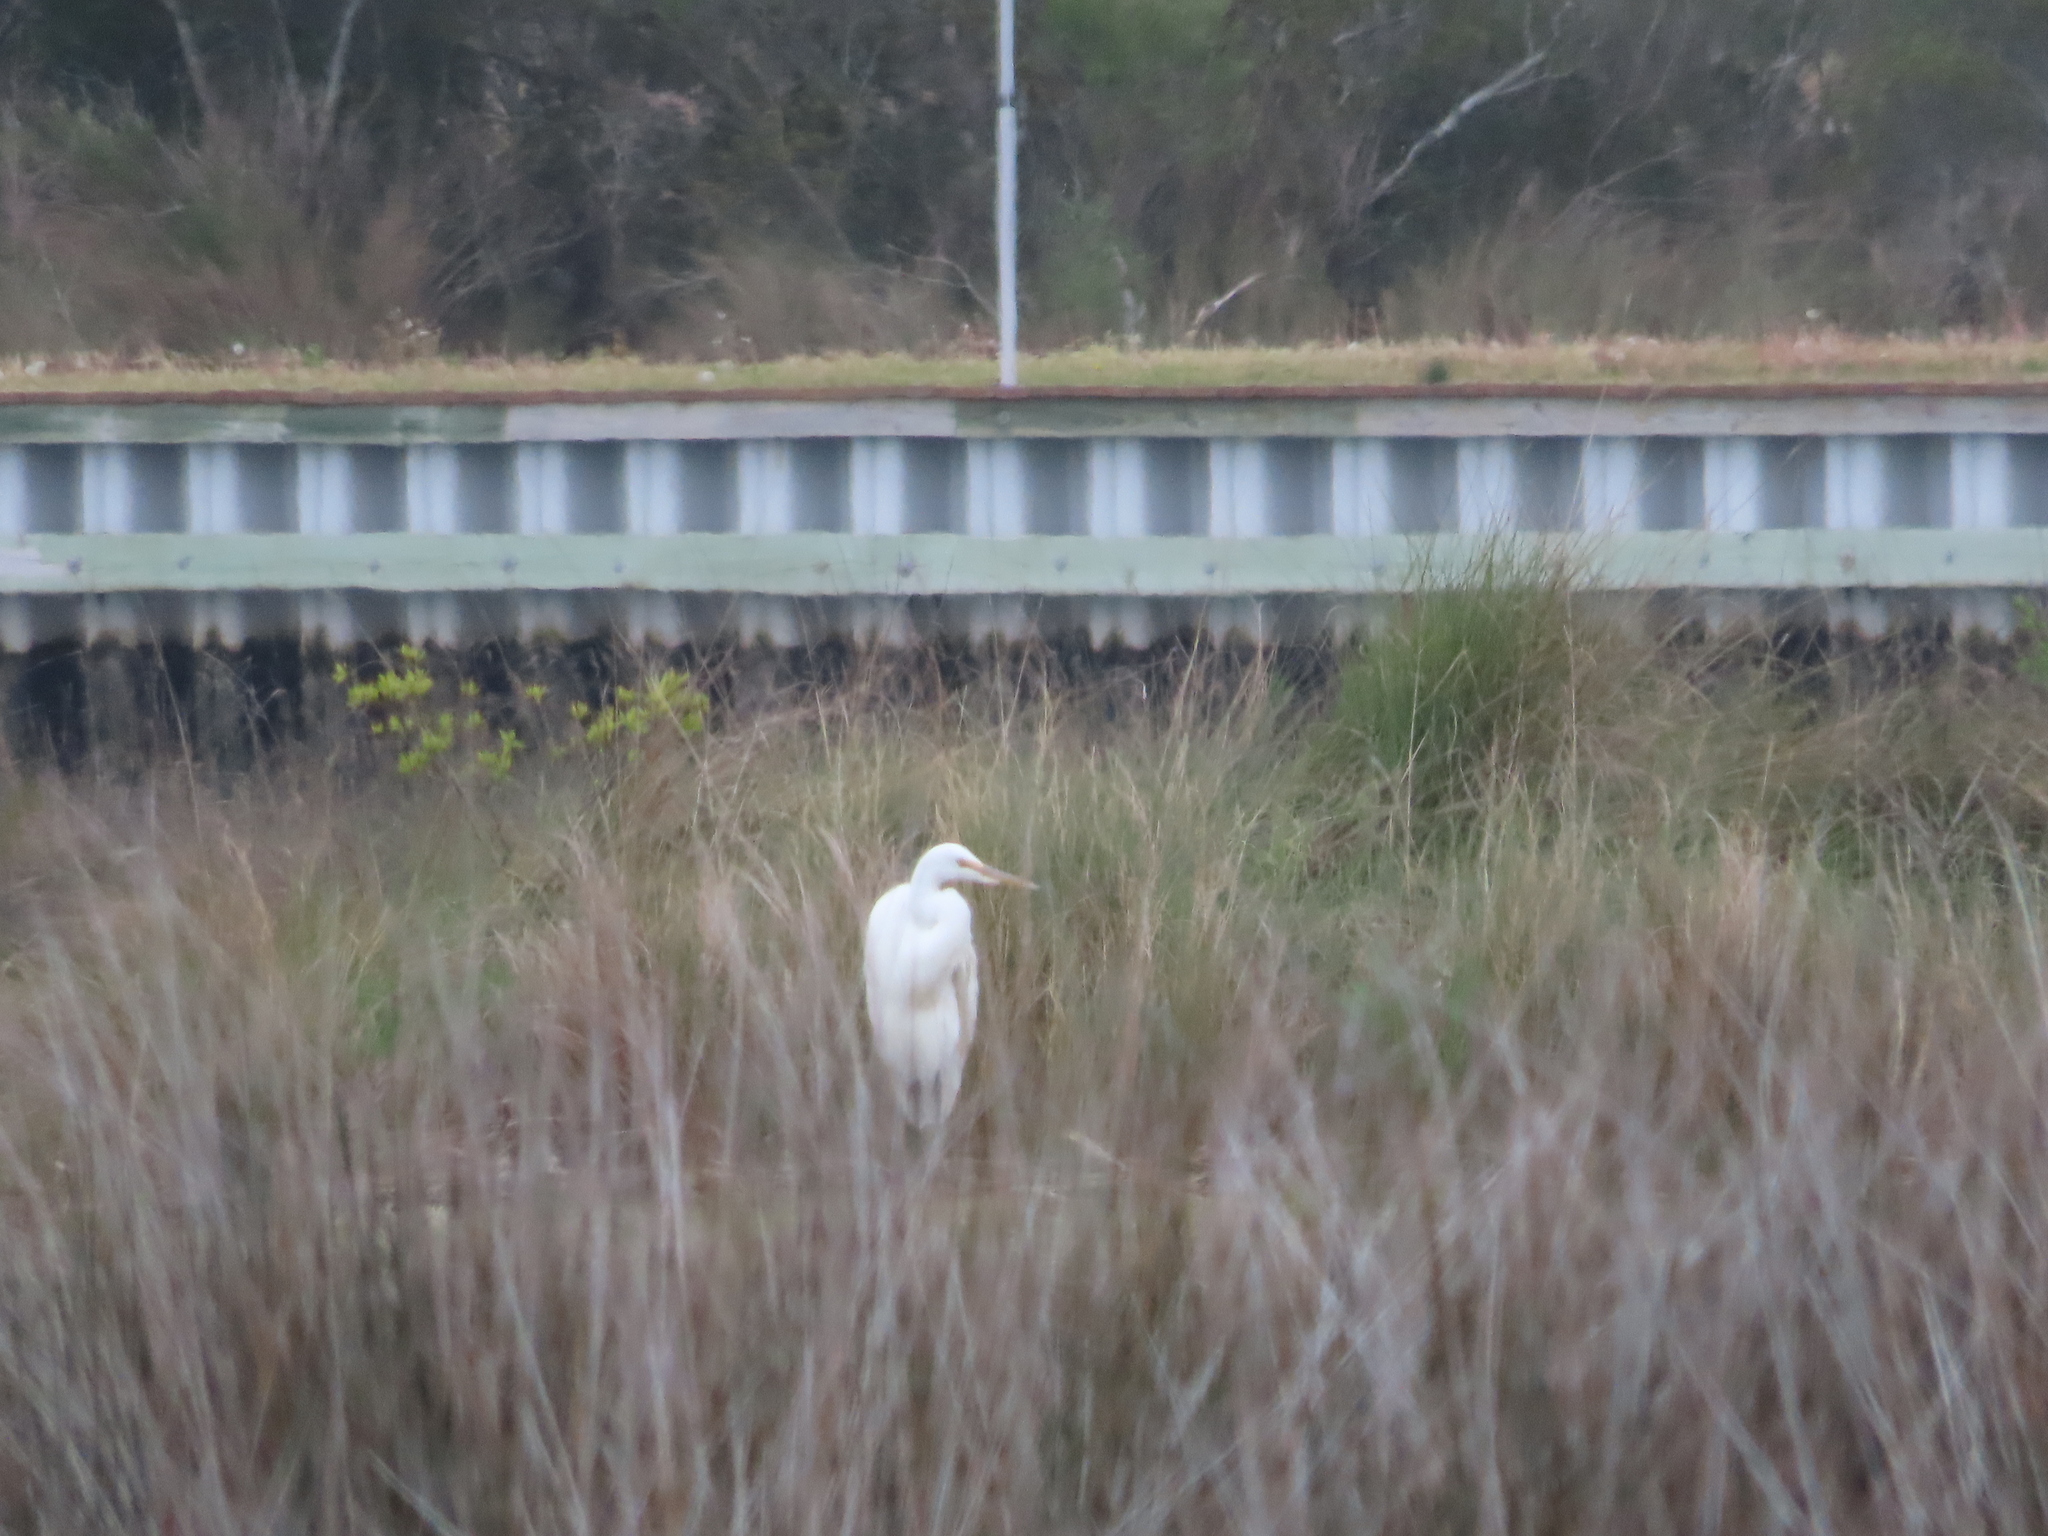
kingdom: Animalia
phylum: Chordata
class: Aves
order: Pelecaniformes
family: Ardeidae
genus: Ardea
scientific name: Ardea alba
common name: Great egret
